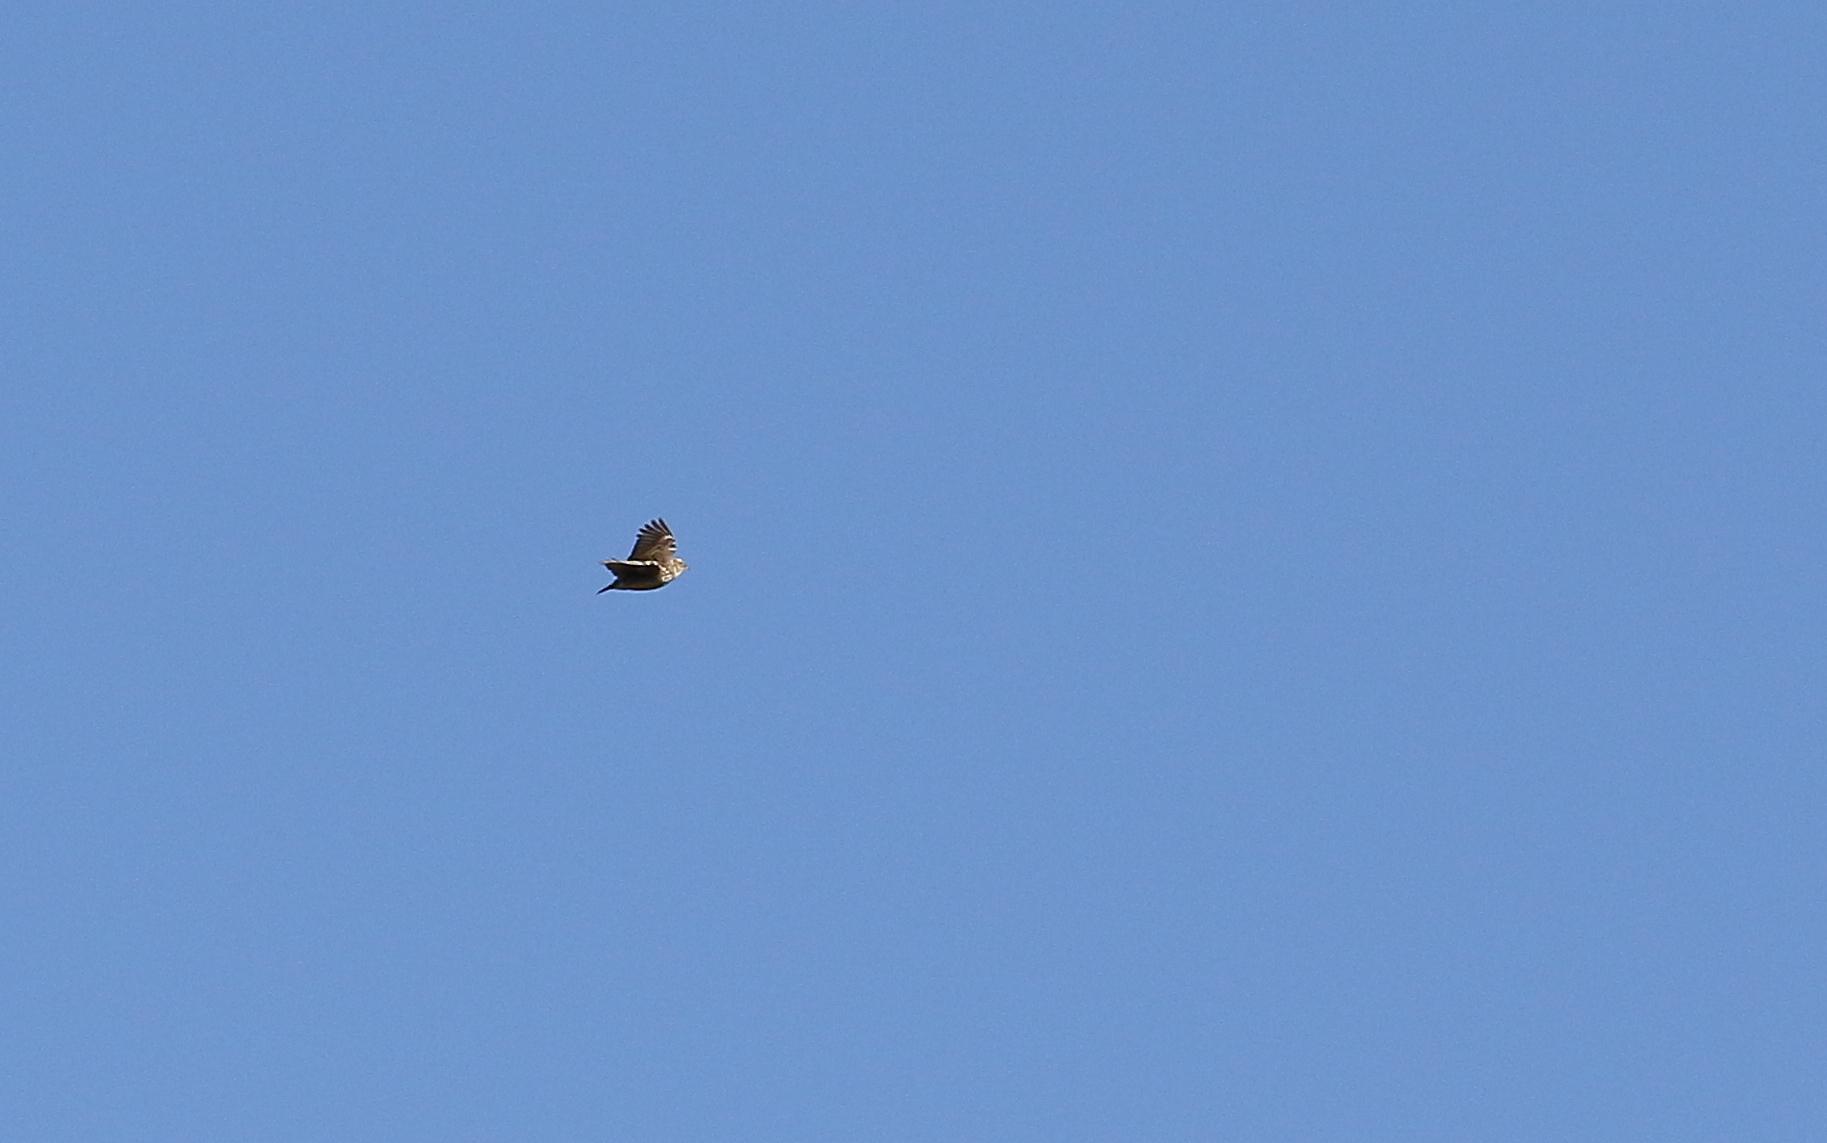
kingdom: Animalia
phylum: Chordata
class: Aves
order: Passeriformes
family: Alaudidae
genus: Lullula
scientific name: Lullula arborea
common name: Woodlark
